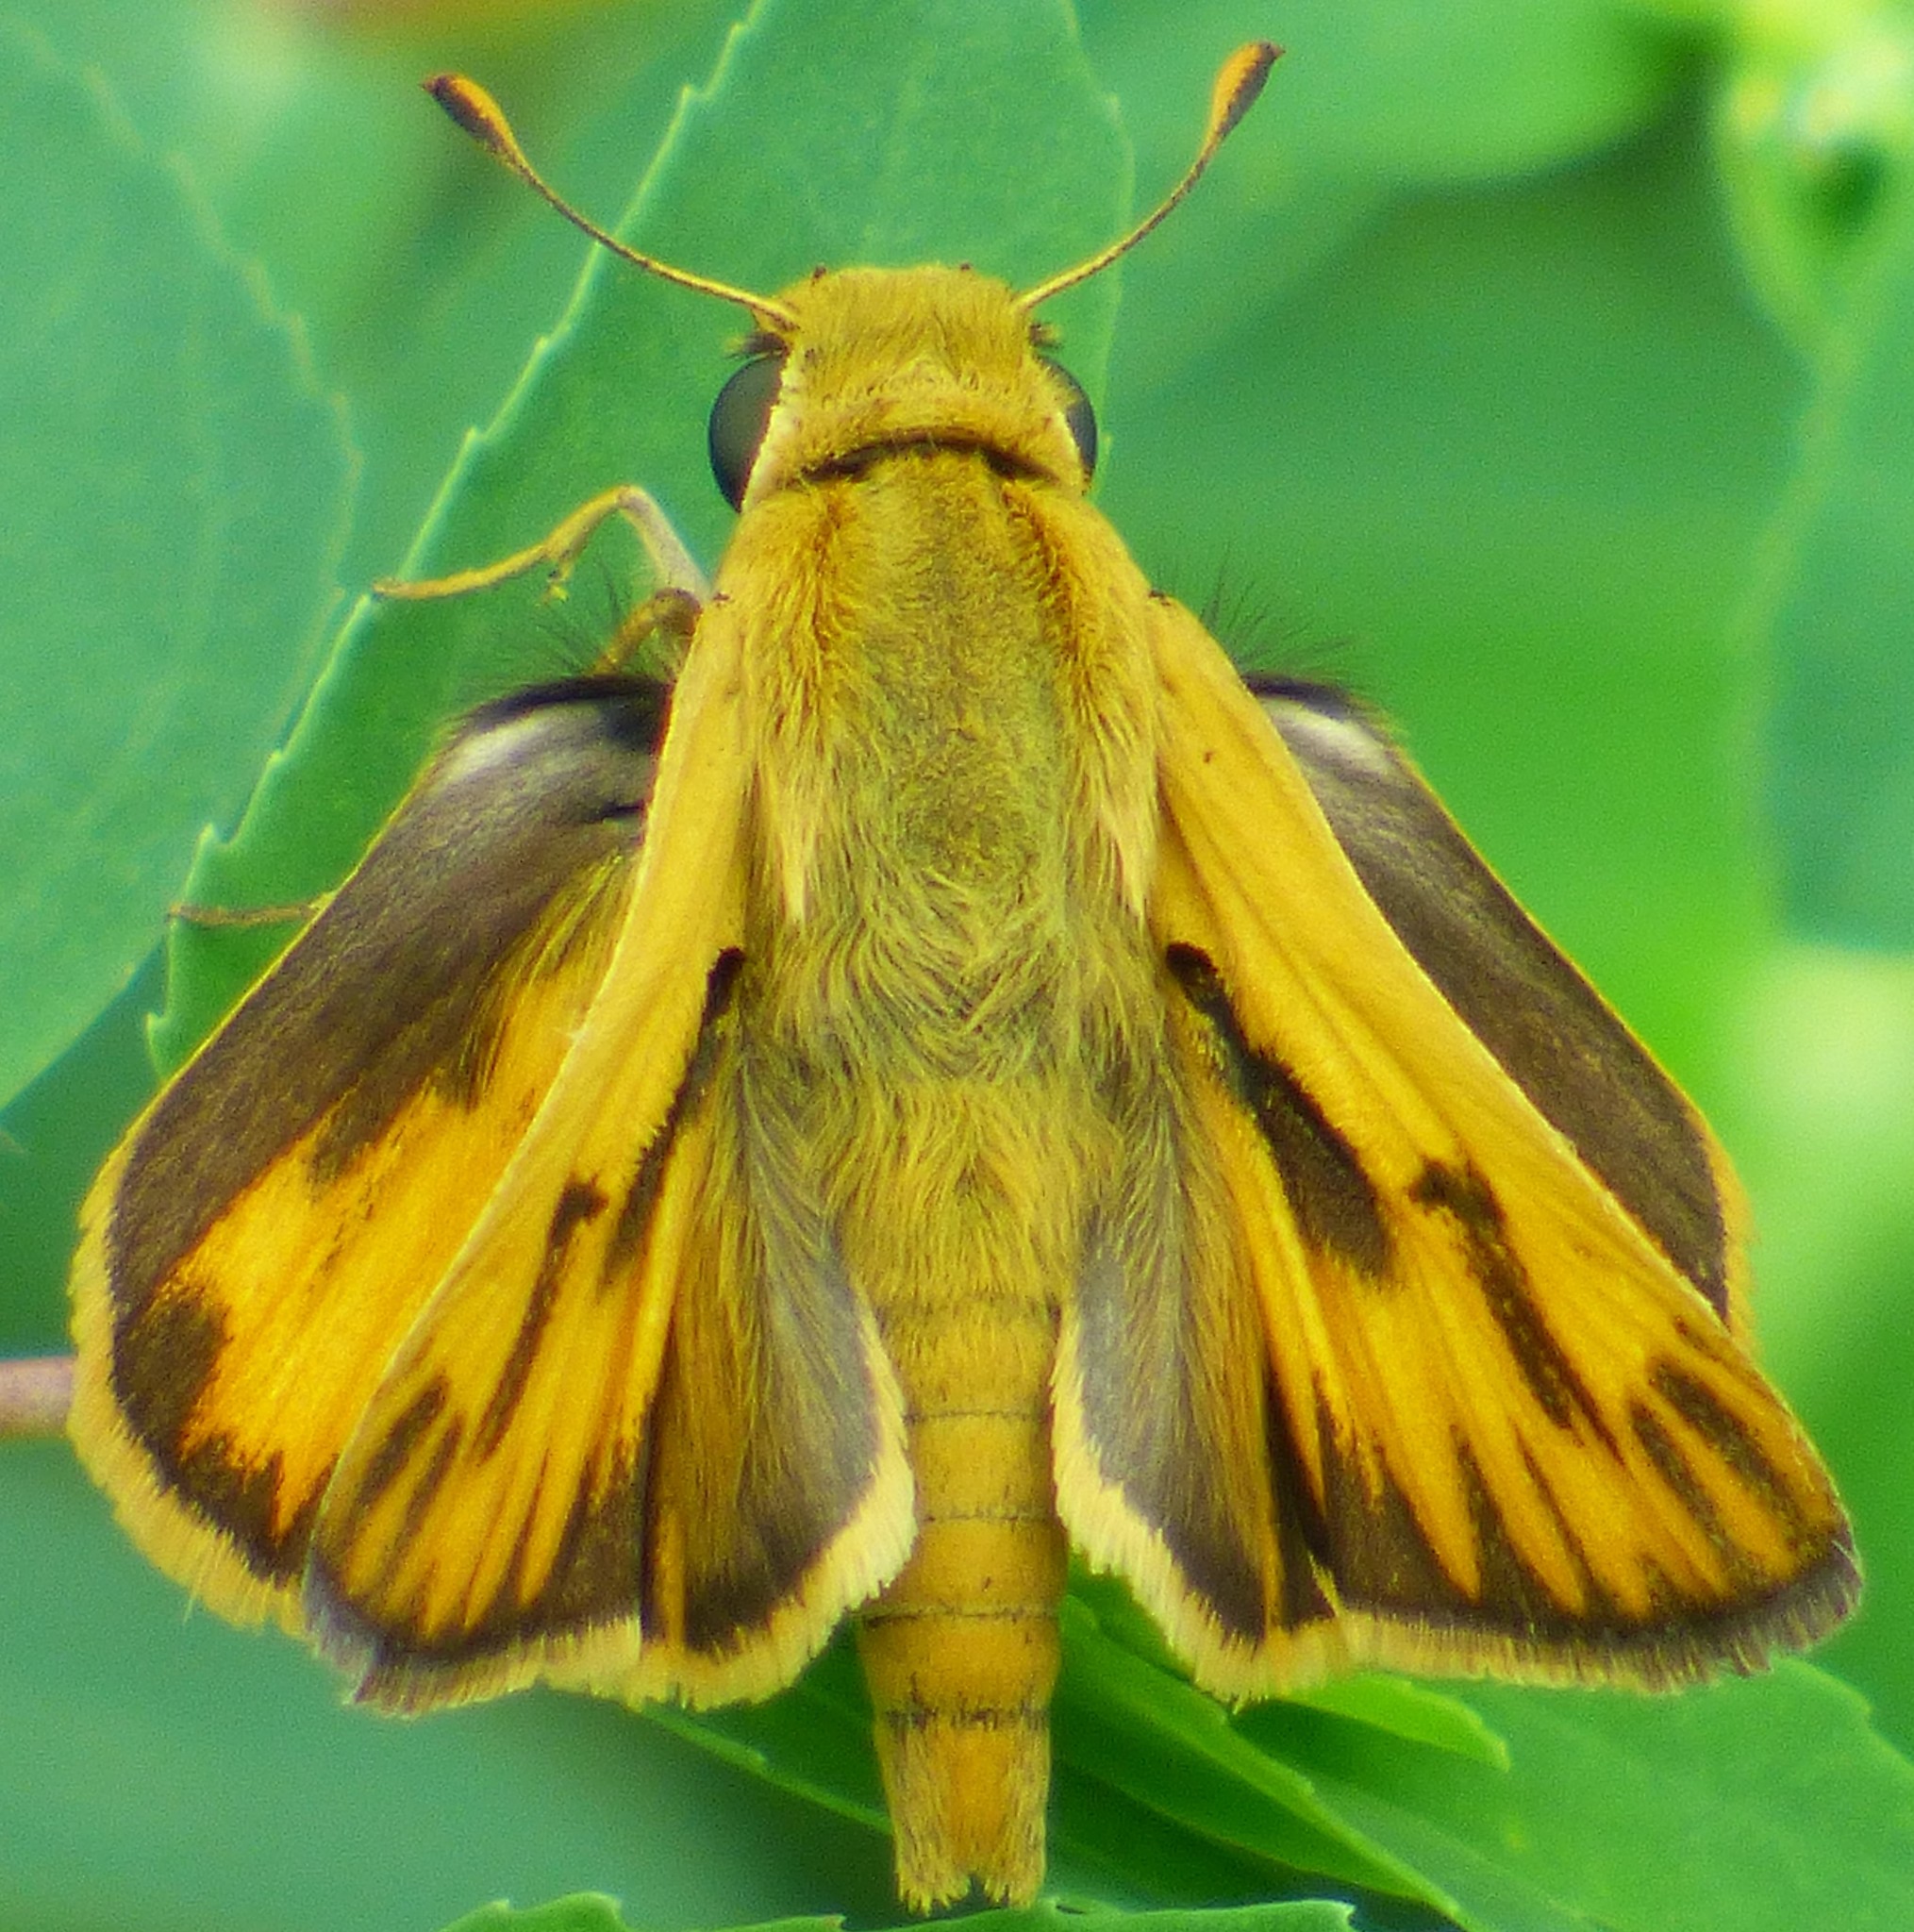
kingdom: Animalia
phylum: Arthropoda
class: Insecta
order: Lepidoptera
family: Hesperiidae
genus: Hylephila
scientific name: Hylephila phyleus
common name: Fiery skipper
